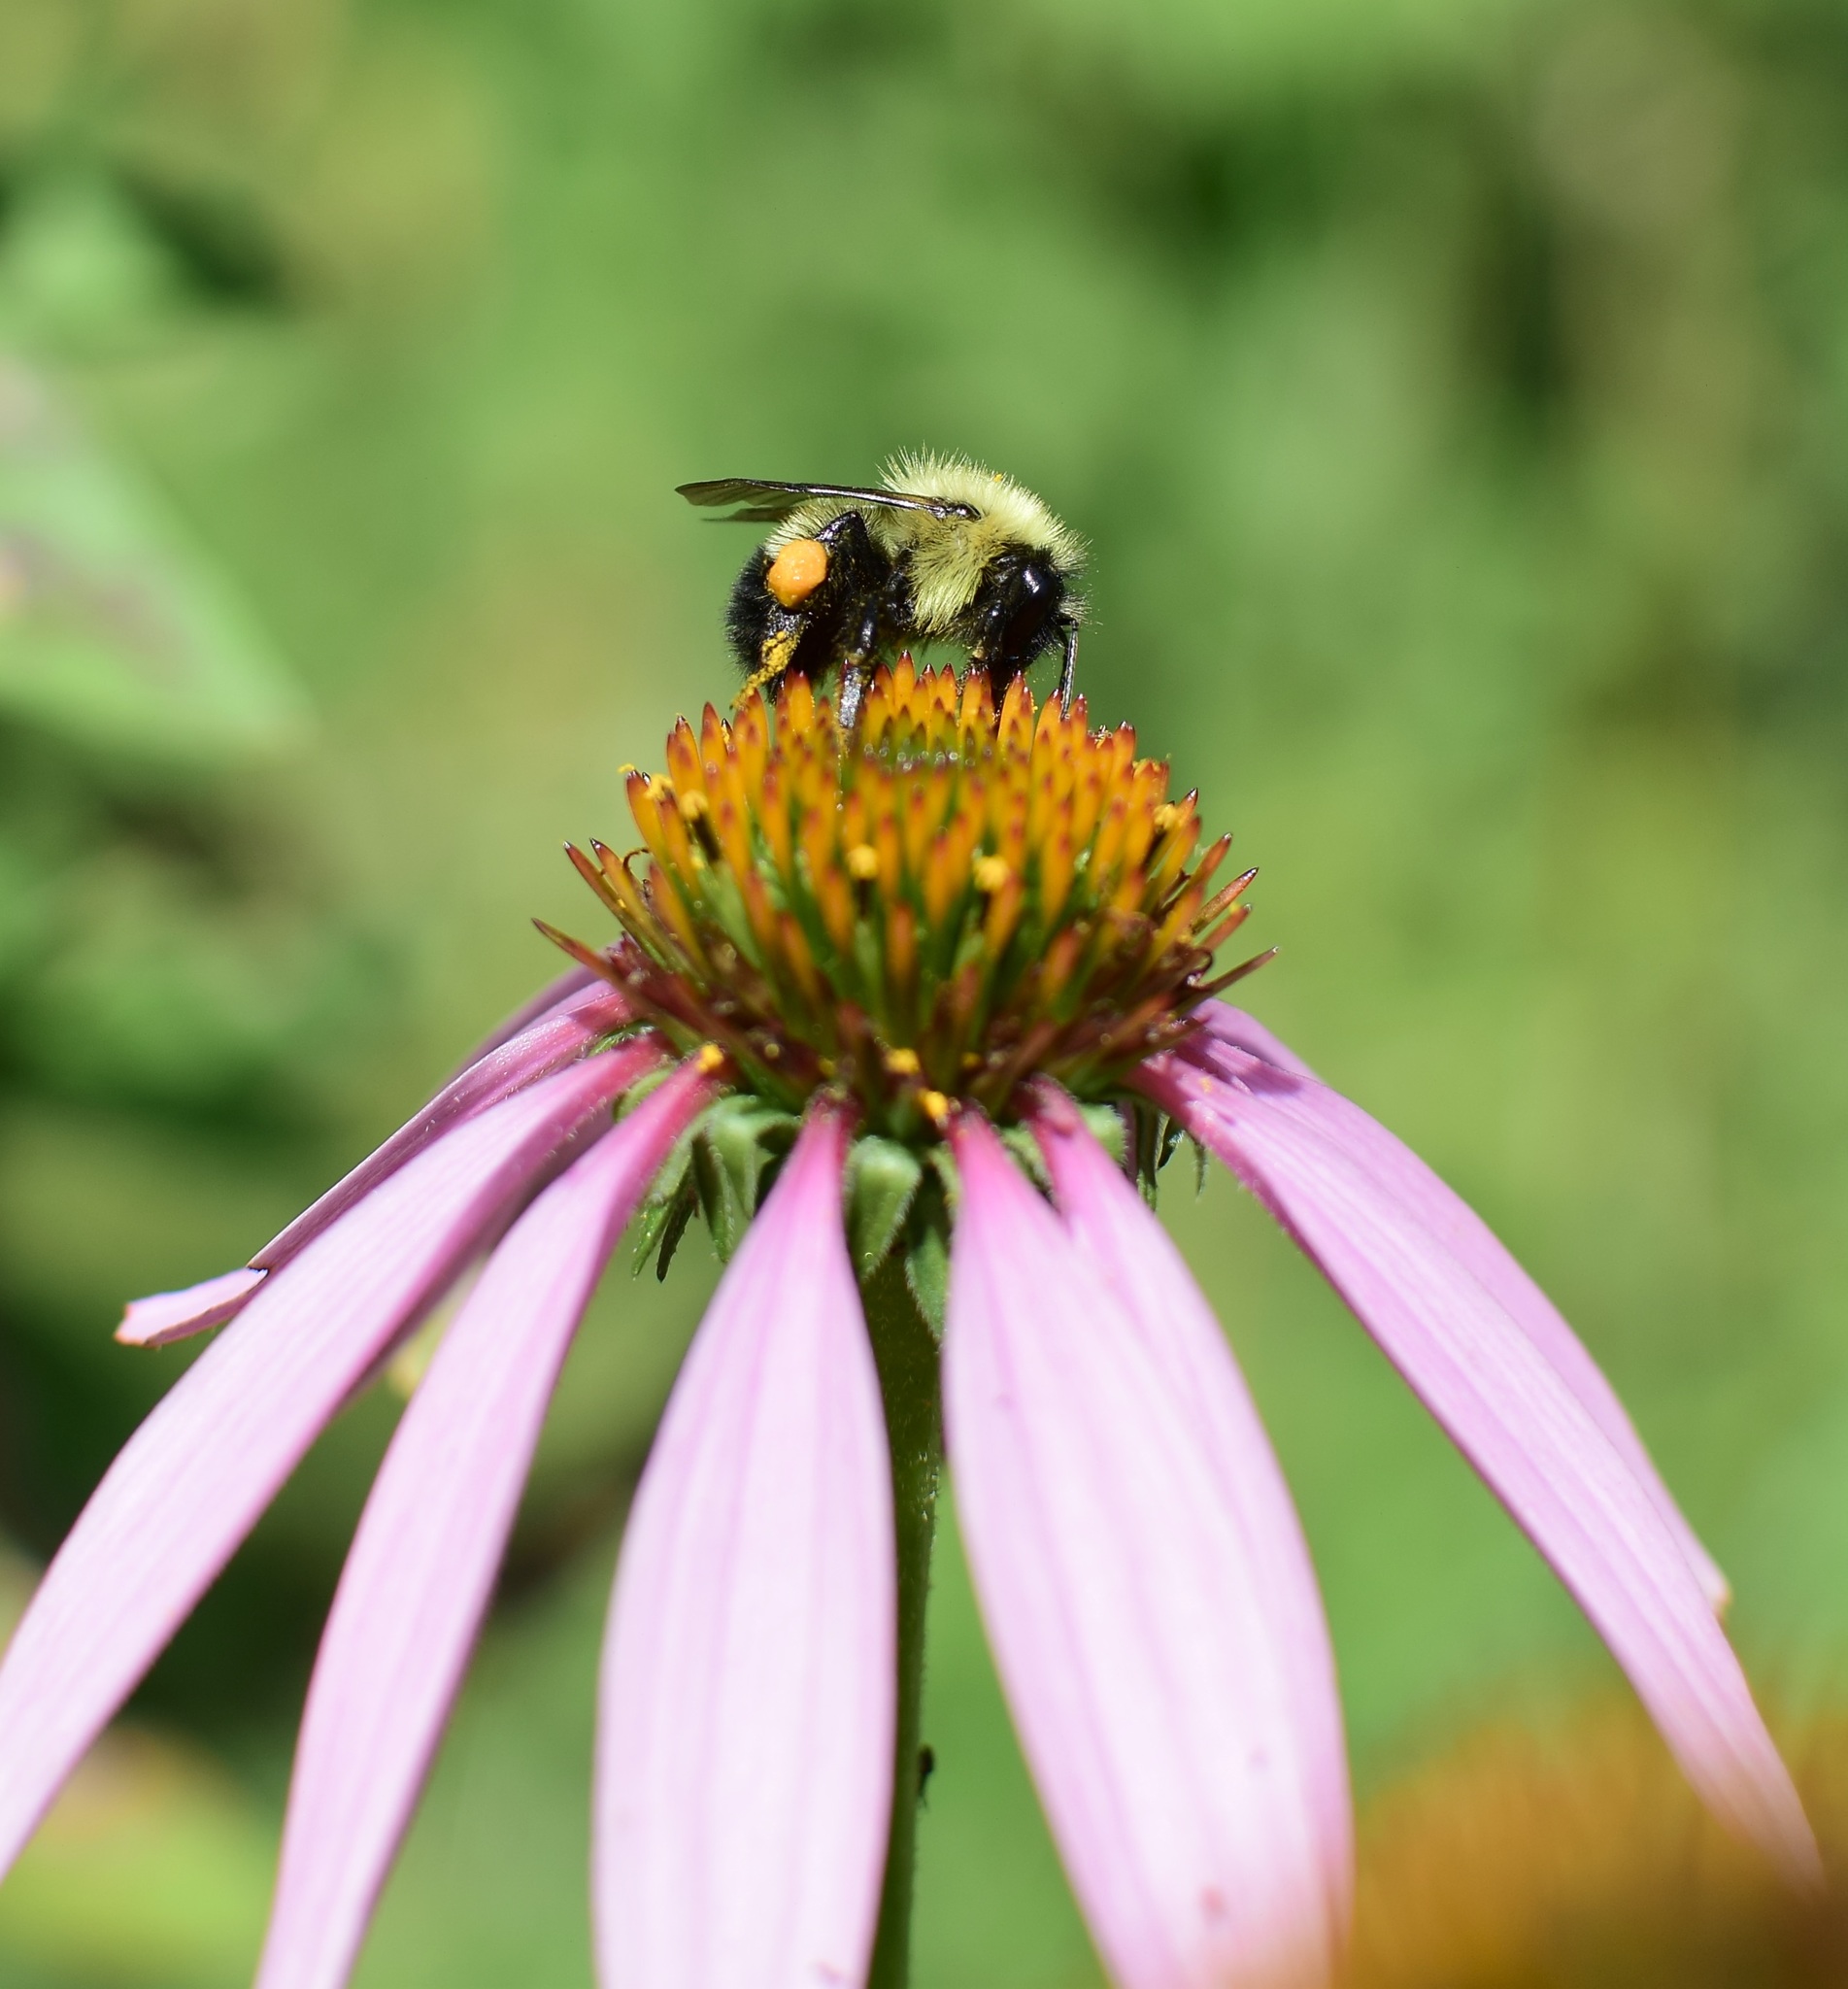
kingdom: Animalia
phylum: Arthropoda
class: Insecta
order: Hymenoptera
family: Apidae
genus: Pyrobombus
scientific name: Pyrobombus
